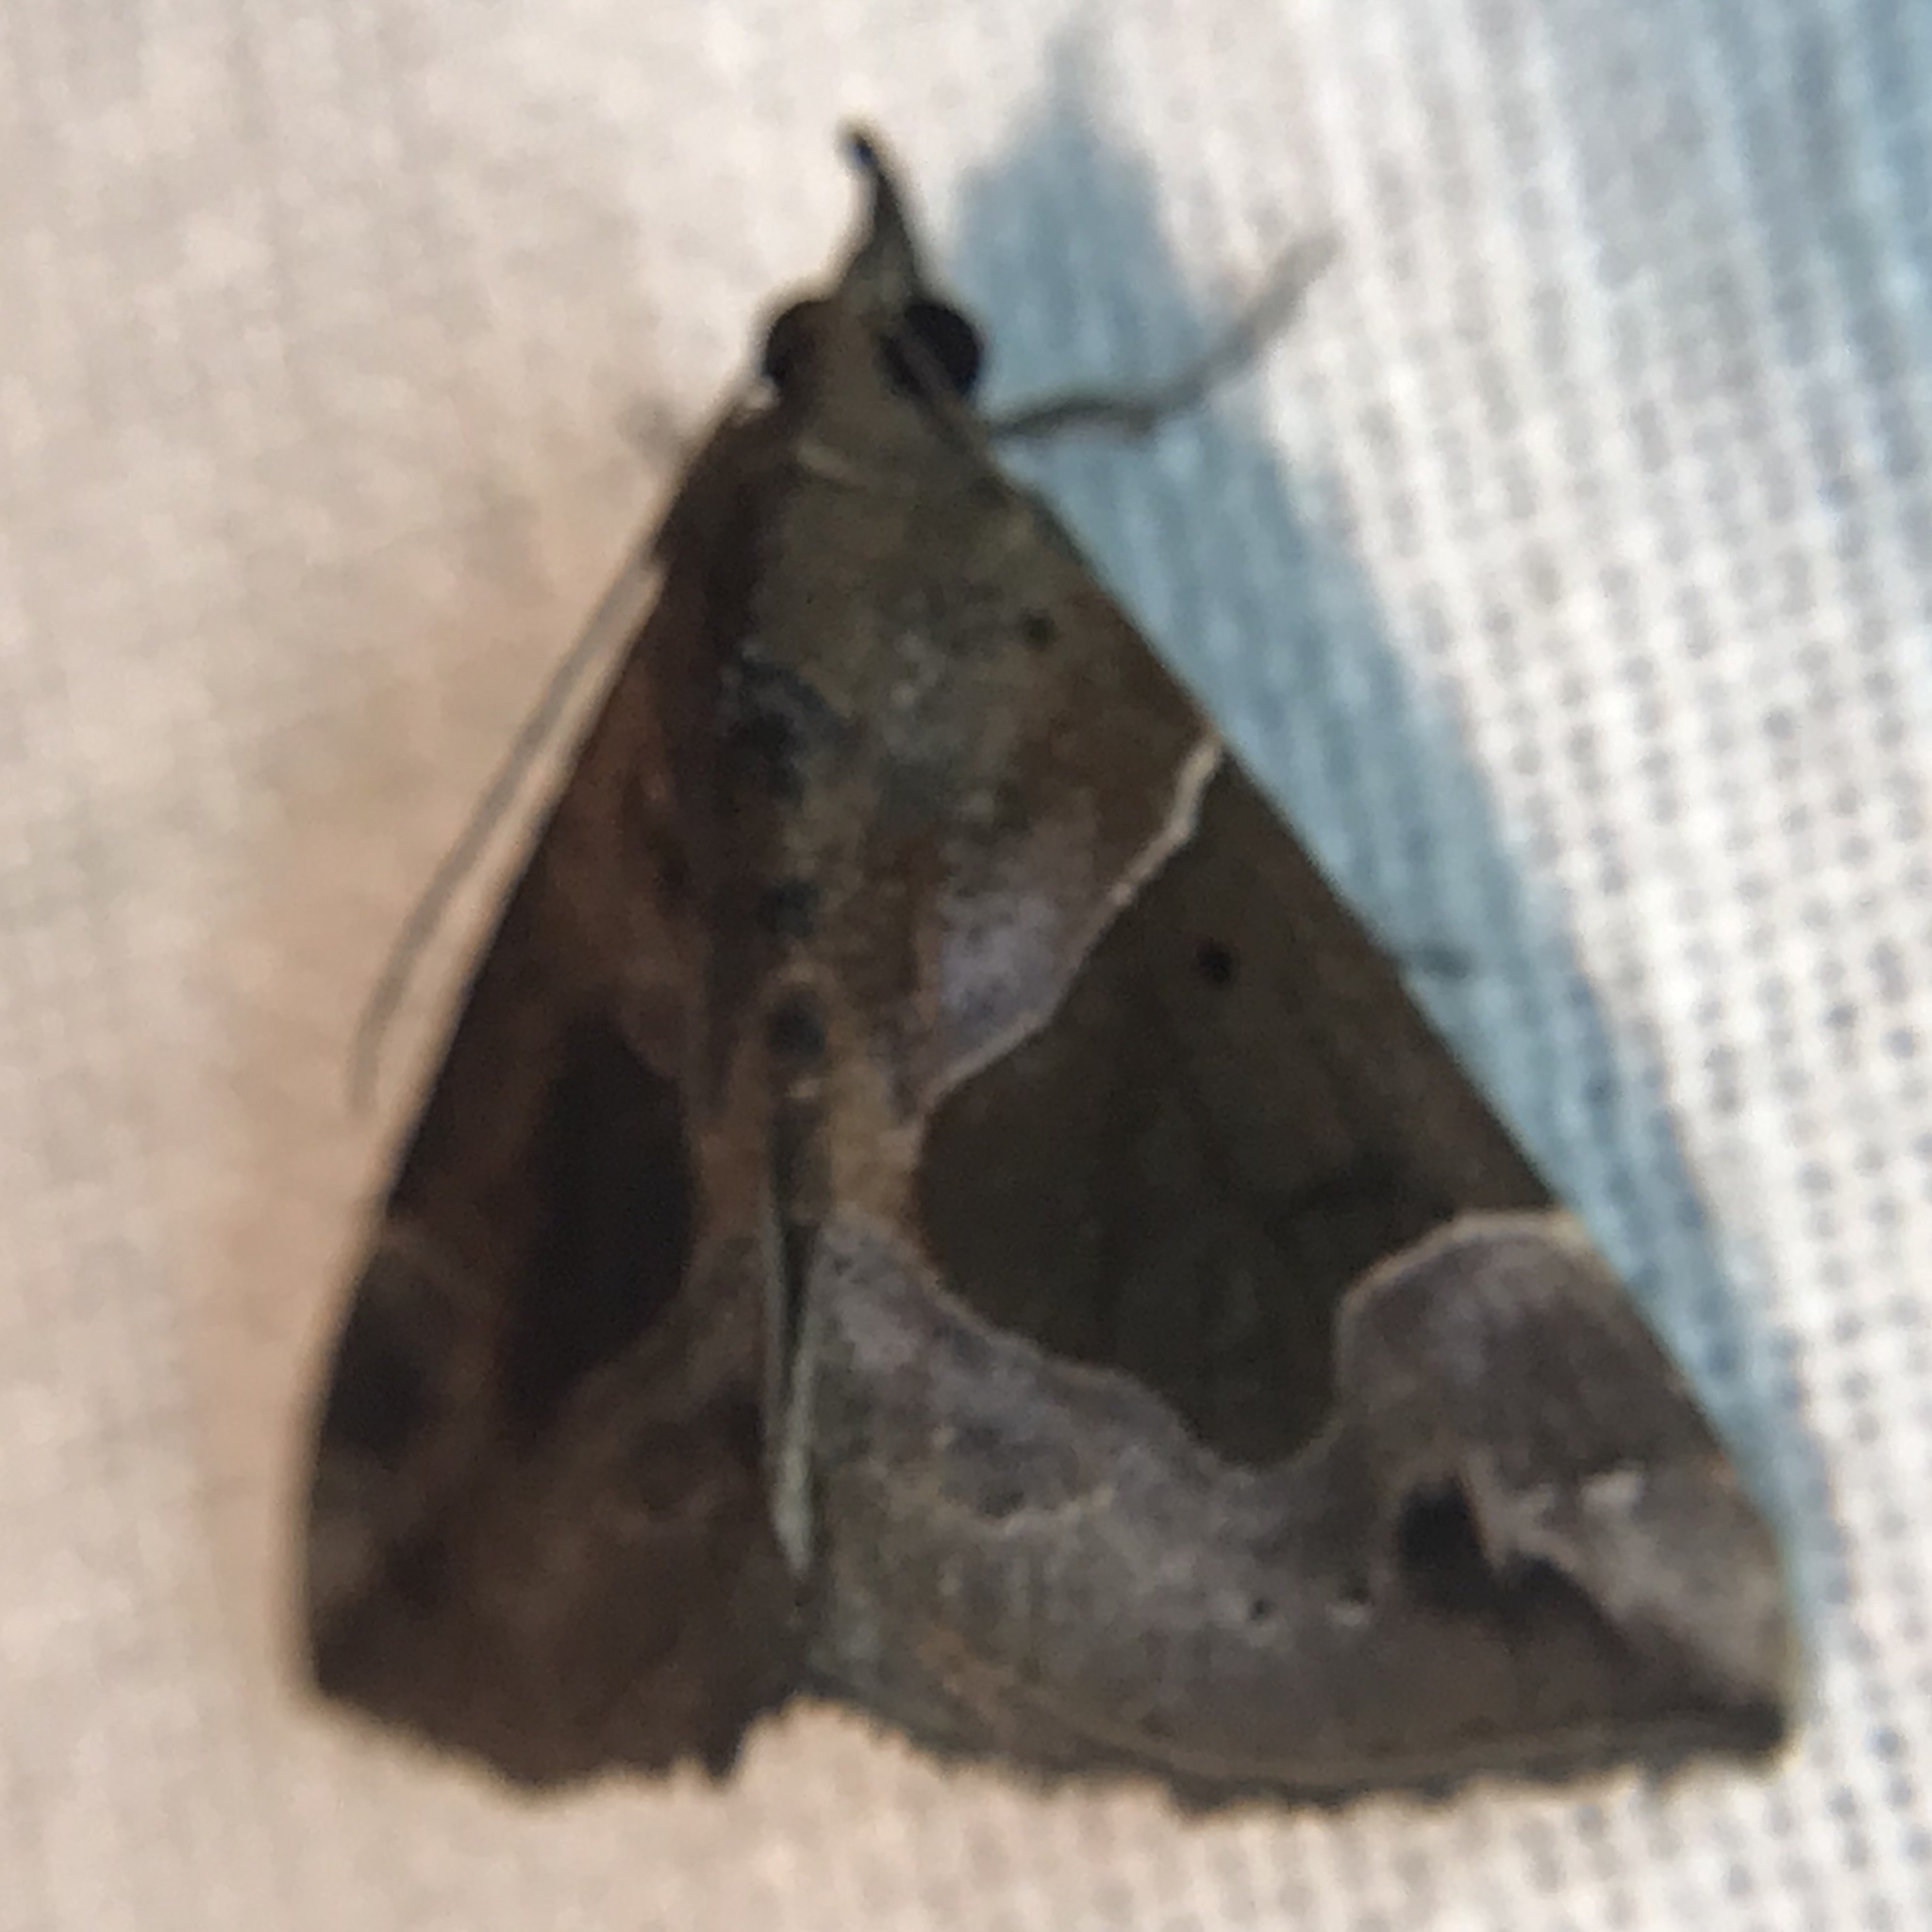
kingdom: Animalia
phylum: Arthropoda
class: Insecta
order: Lepidoptera
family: Erebidae
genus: Hypena
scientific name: Hypena manalis
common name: Flowing-line bomolocha moth
